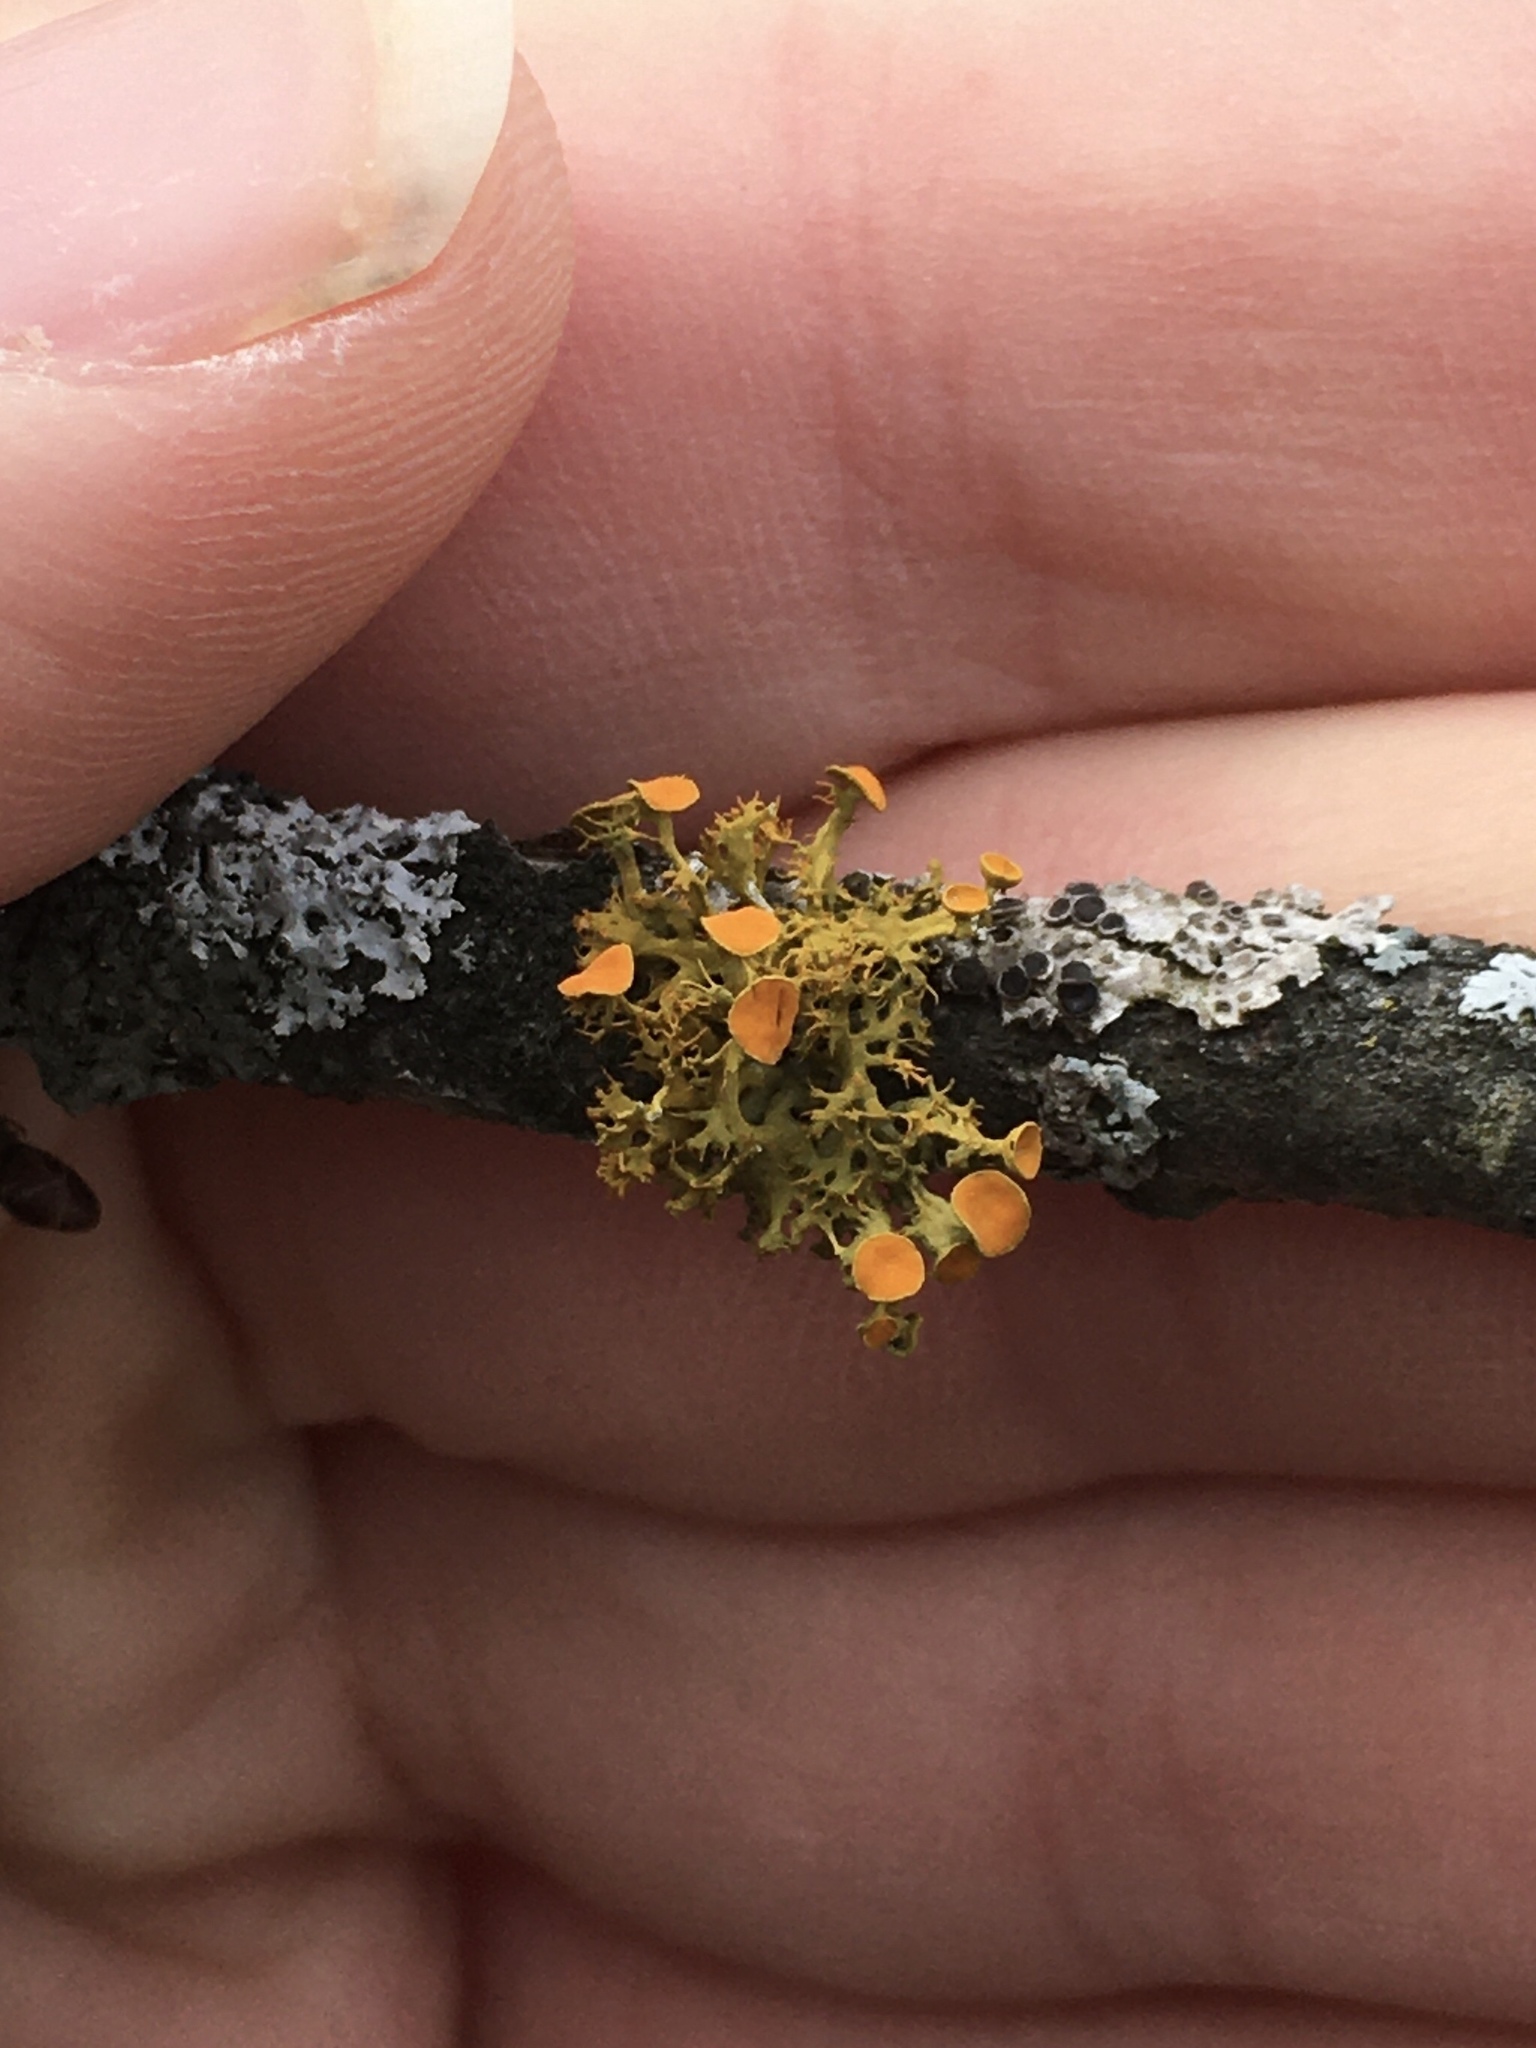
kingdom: Fungi
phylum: Ascomycota
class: Lecanoromycetes
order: Teloschistales
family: Teloschistaceae
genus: Niorma
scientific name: Niorma chrysophthalma
